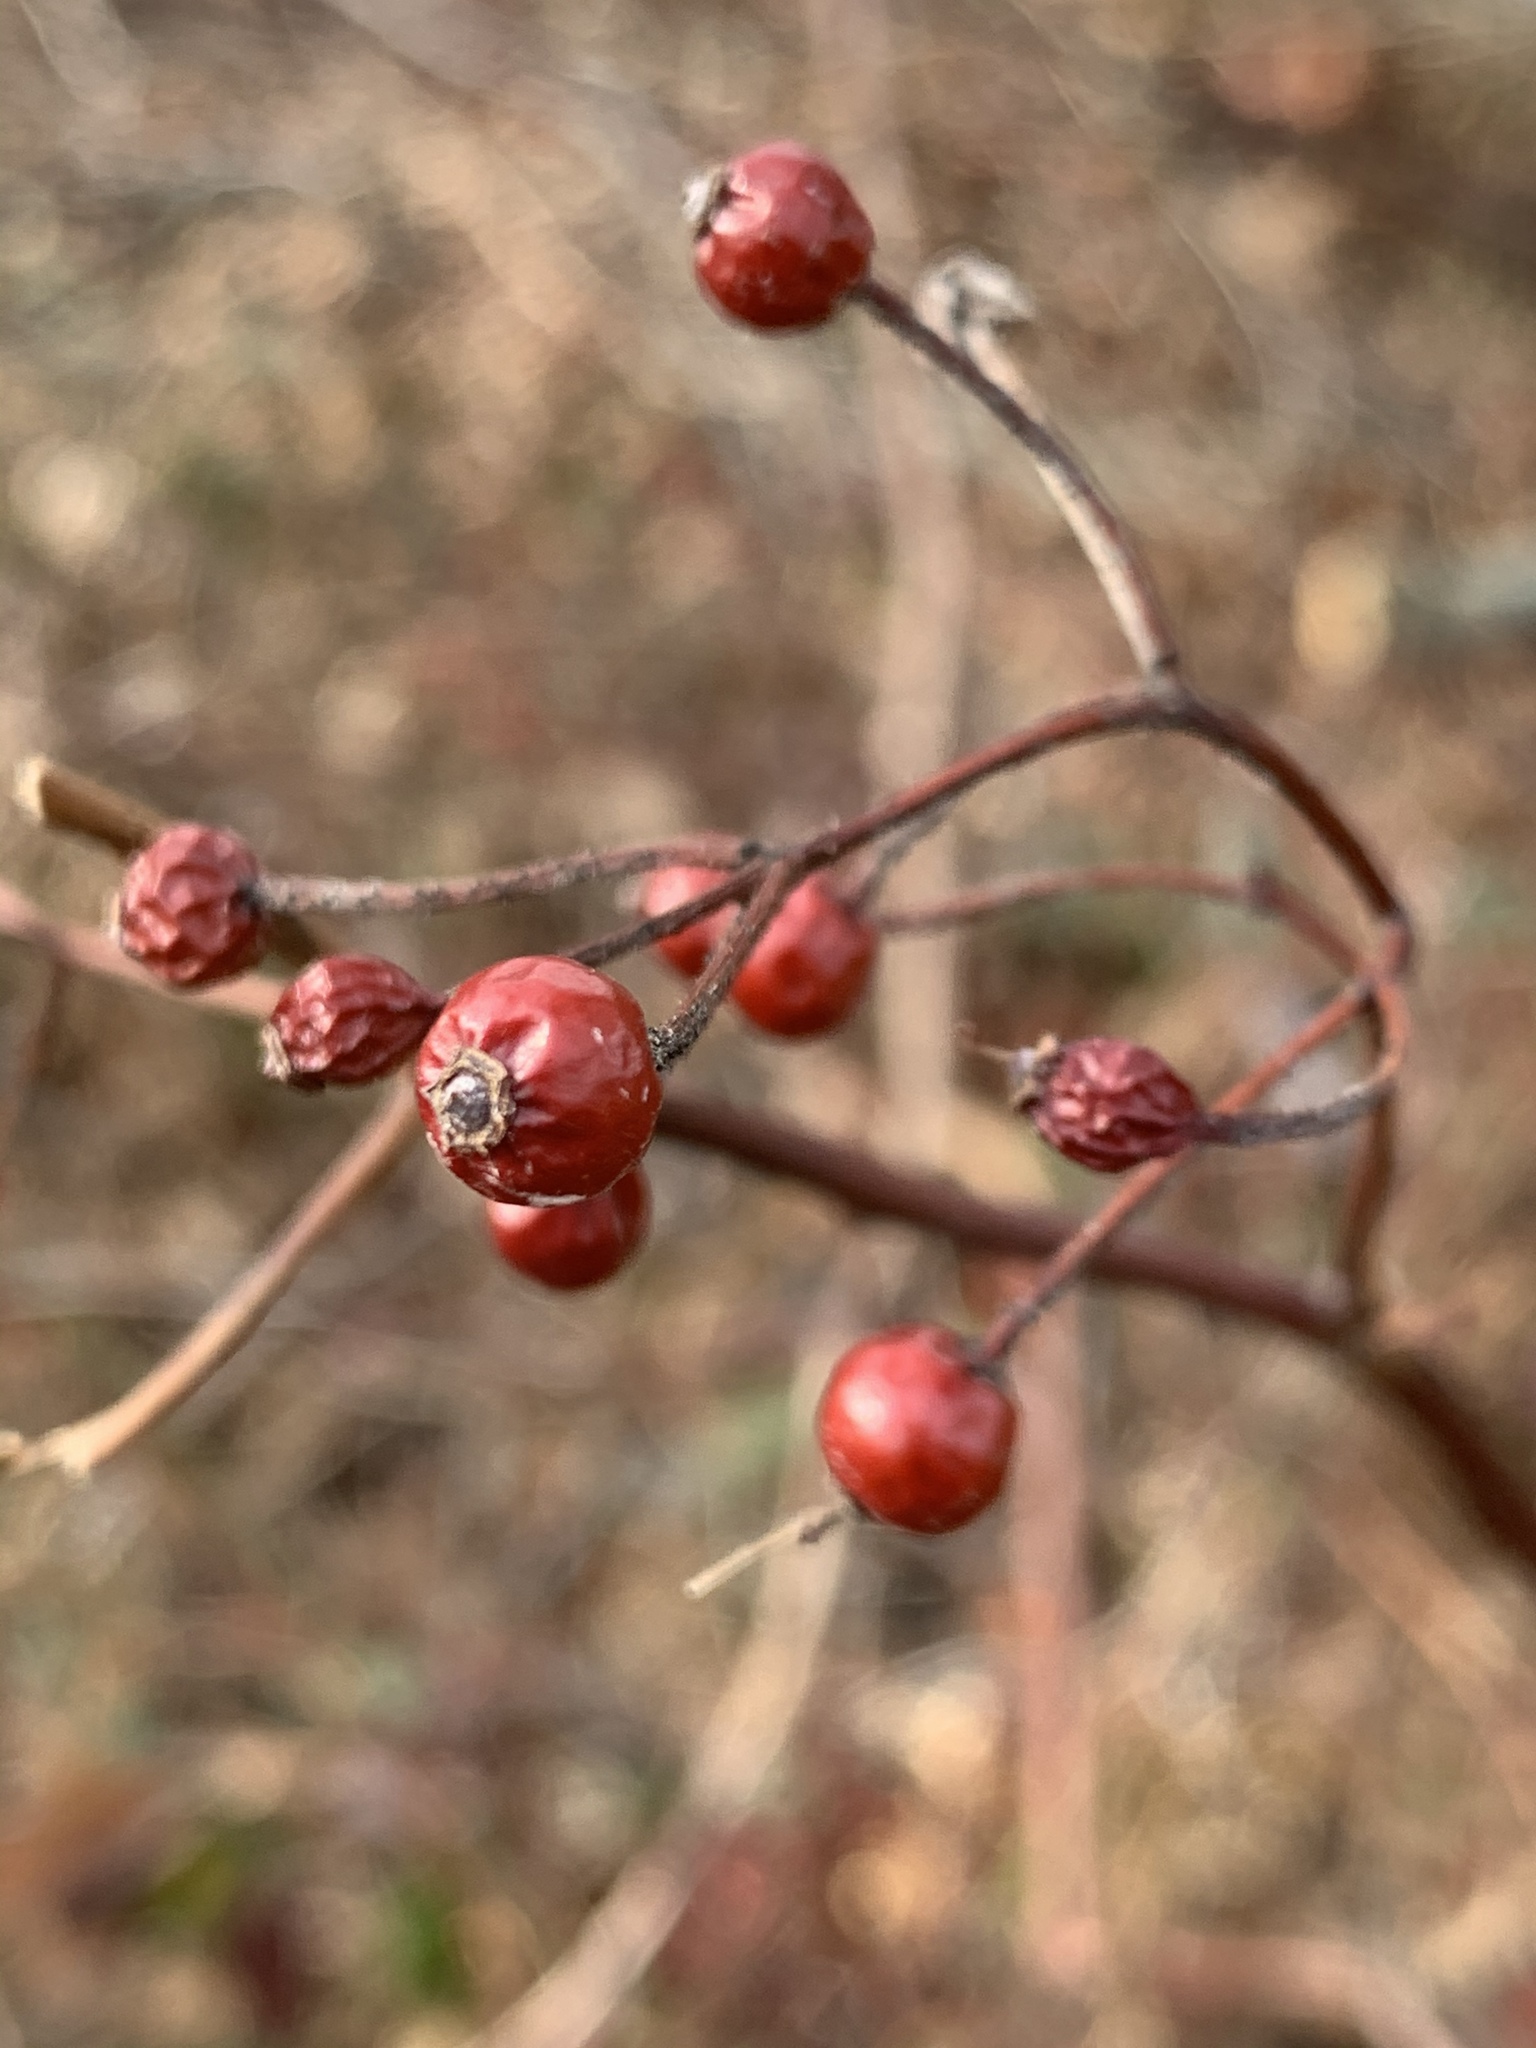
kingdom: Plantae
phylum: Tracheophyta
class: Magnoliopsida
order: Rosales
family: Rosaceae
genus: Rosa
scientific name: Rosa multiflora
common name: Multiflora rose
